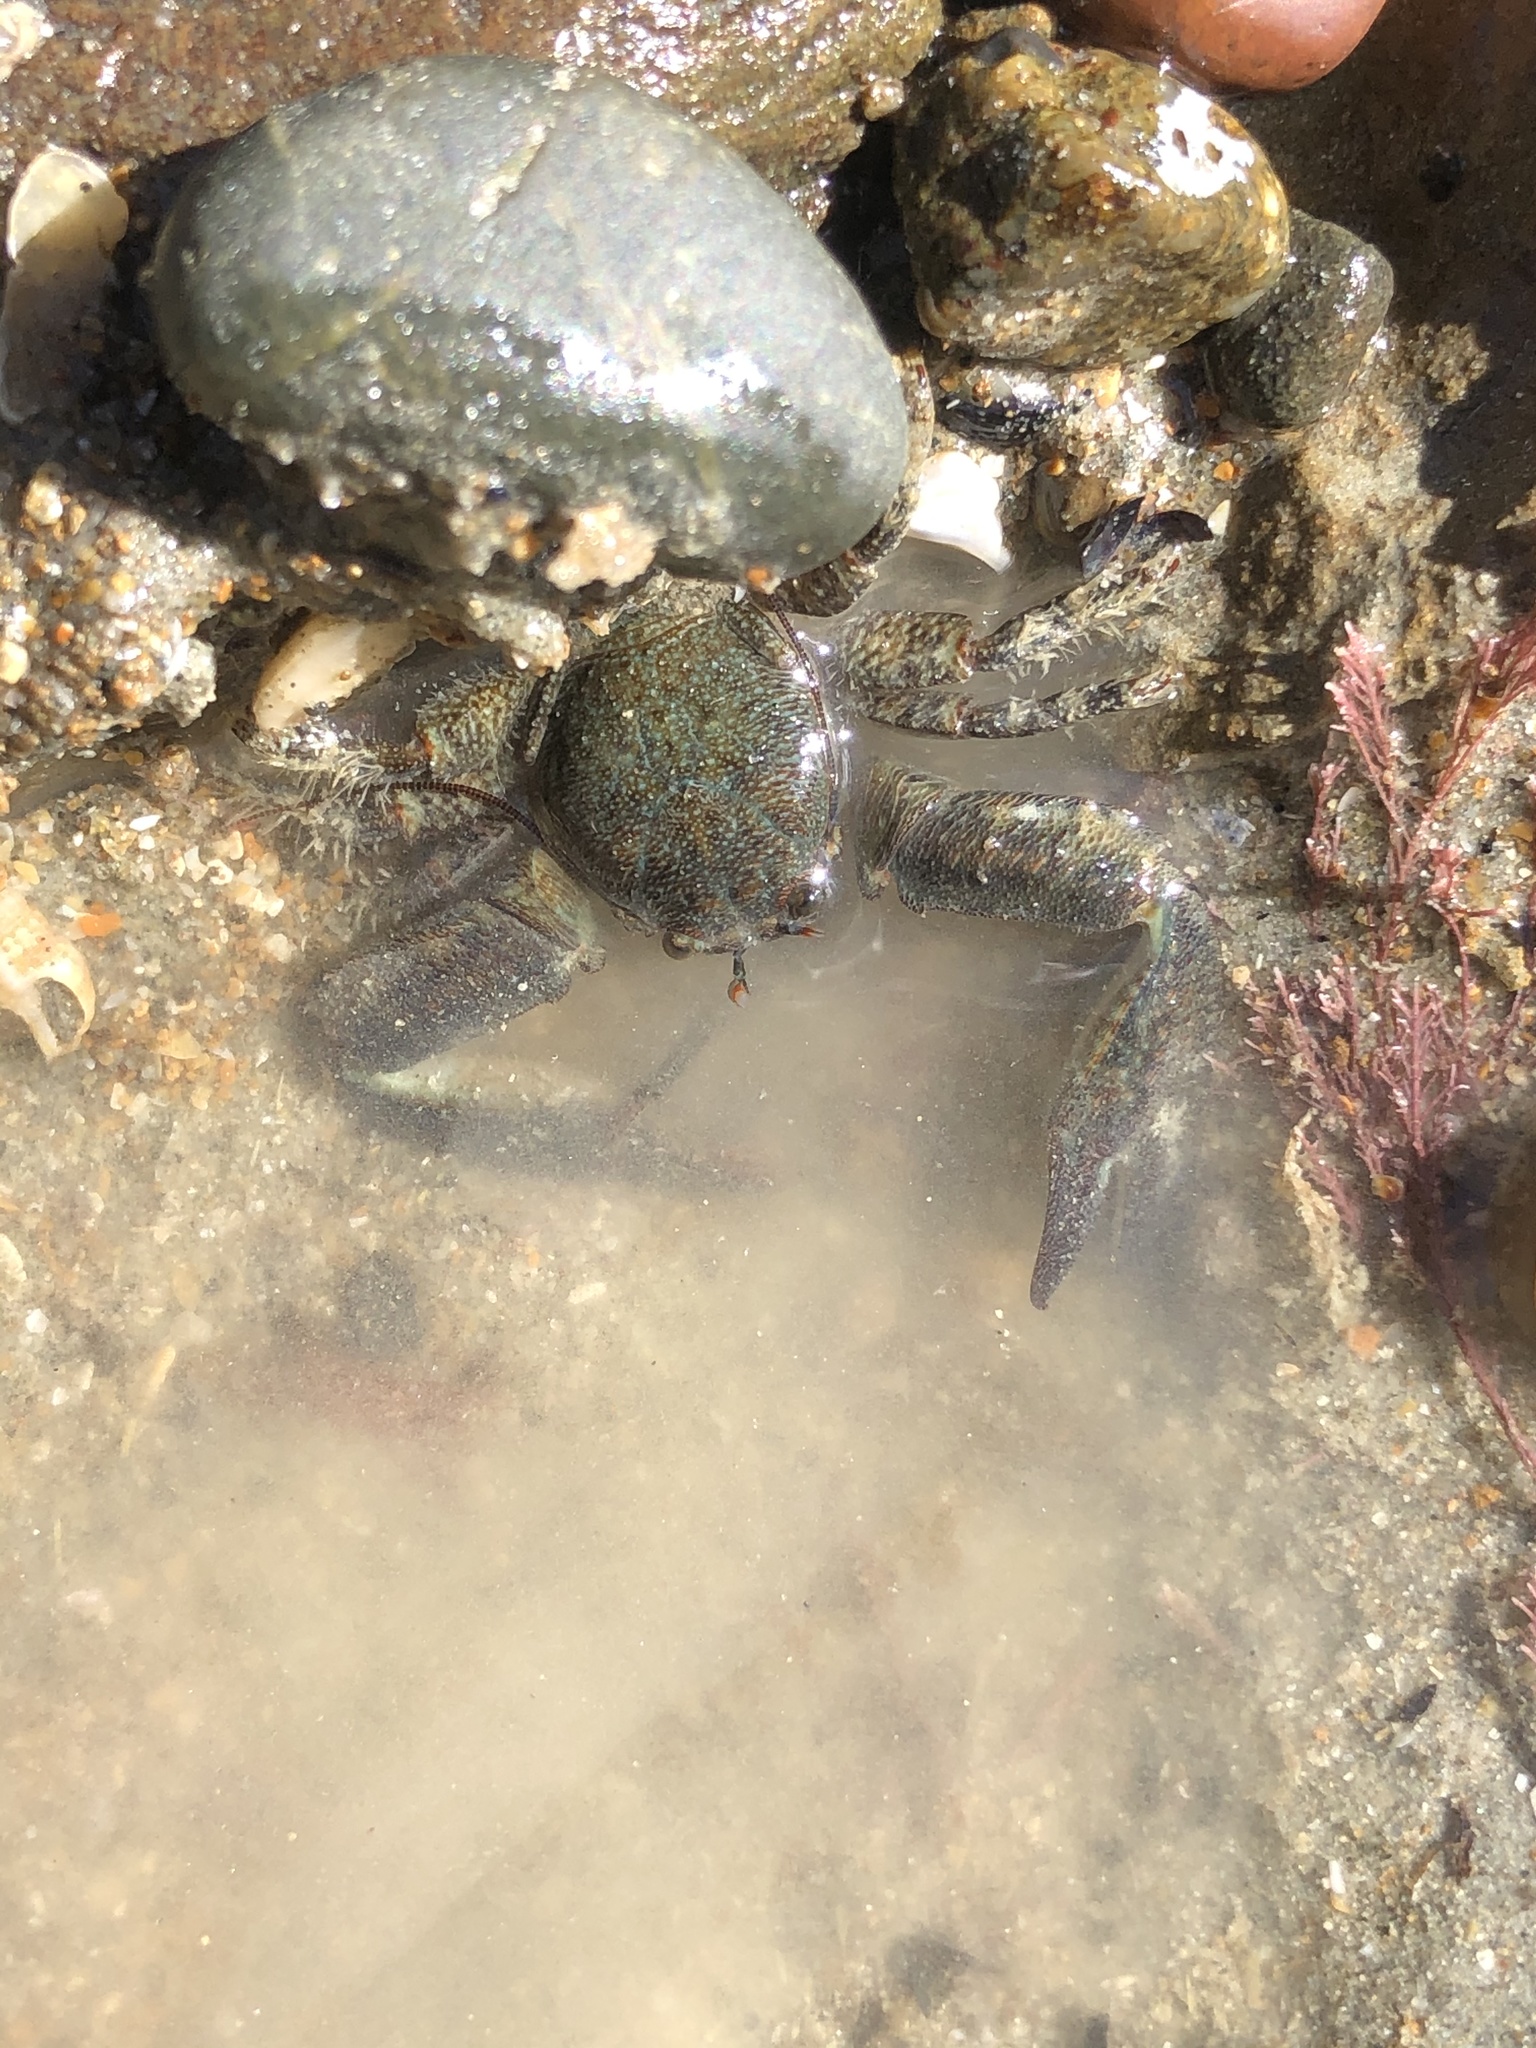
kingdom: Animalia
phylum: Arthropoda
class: Malacostraca
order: Decapoda
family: Porcellanidae
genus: Petrolisthes
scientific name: Petrolisthes elongatus
